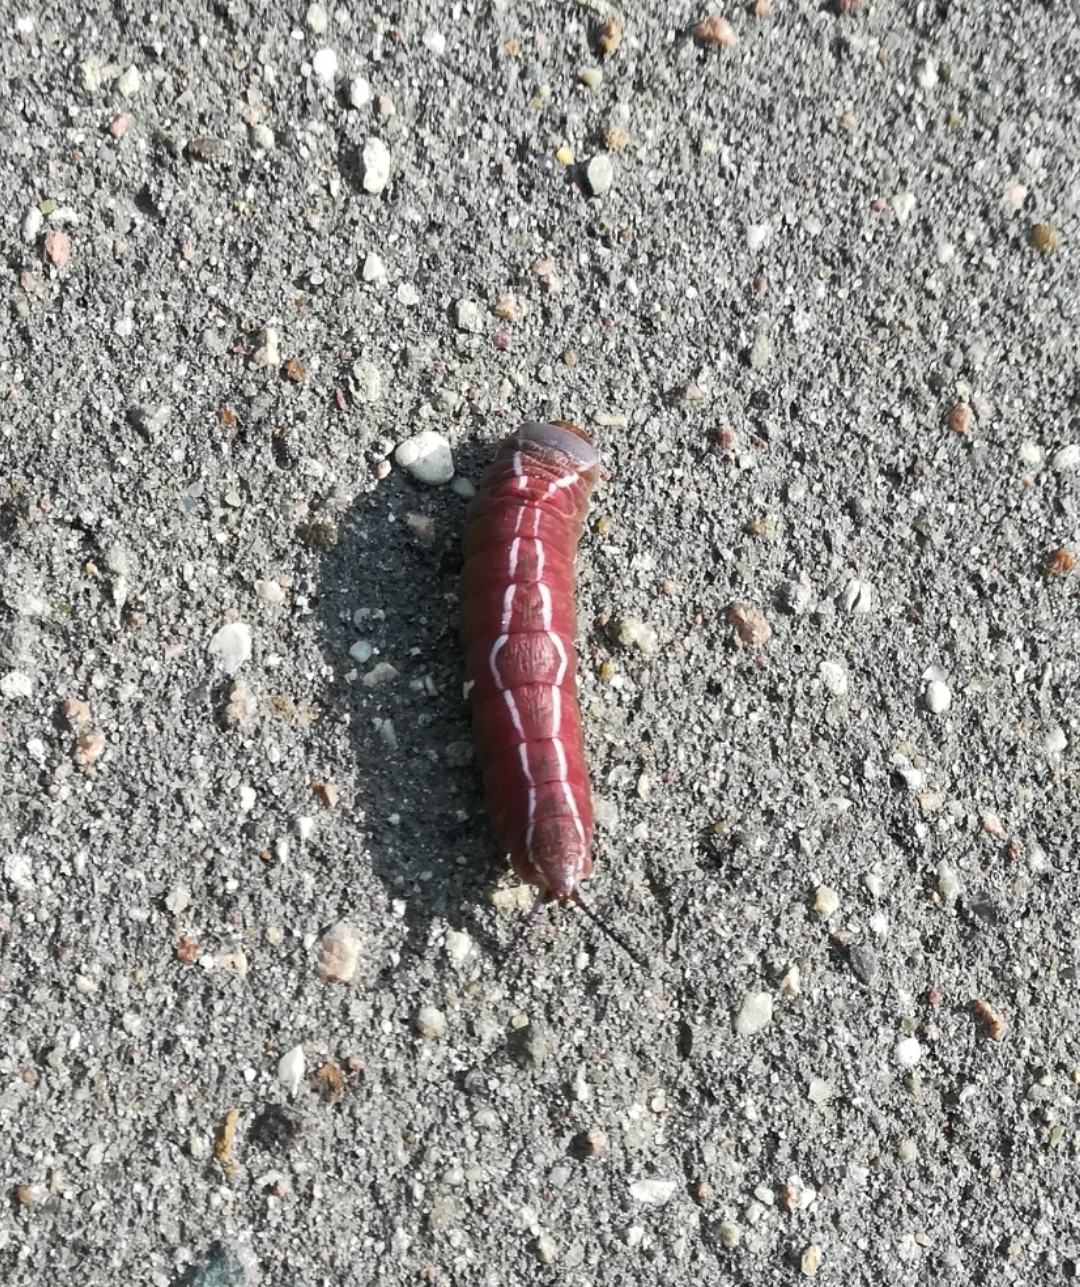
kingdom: Animalia
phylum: Arthropoda
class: Insecta
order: Lepidoptera
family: Notodontidae
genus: Cerura
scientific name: Cerura vinula
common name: Puss moth
